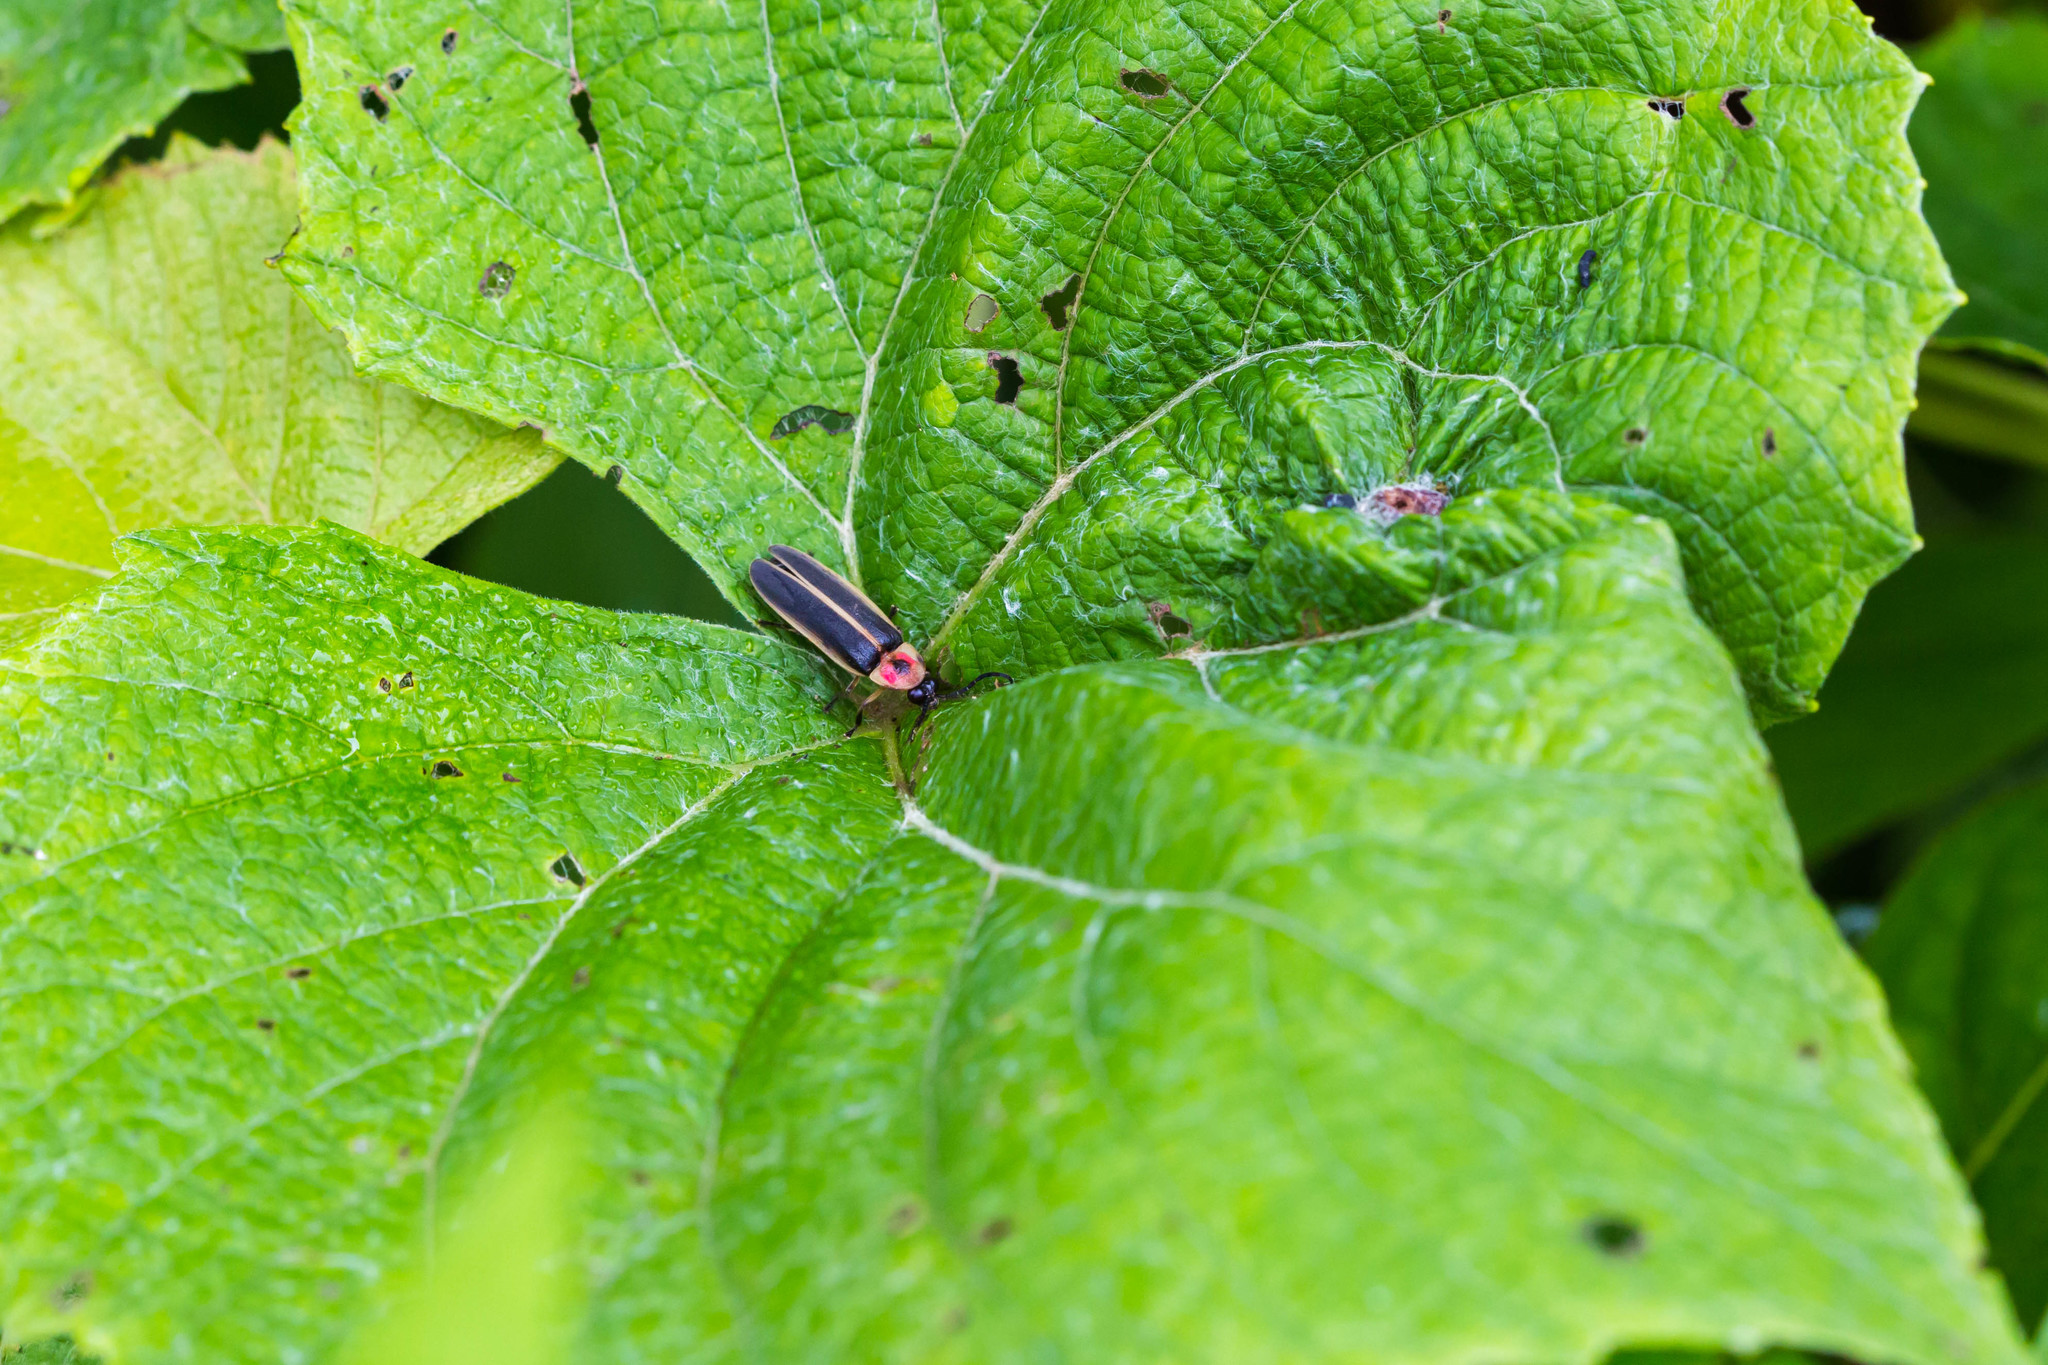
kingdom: Animalia
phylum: Arthropoda
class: Insecta
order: Coleoptera
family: Lampyridae
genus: Photinus
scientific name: Photinus pyralis
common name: Big dipper firefly
